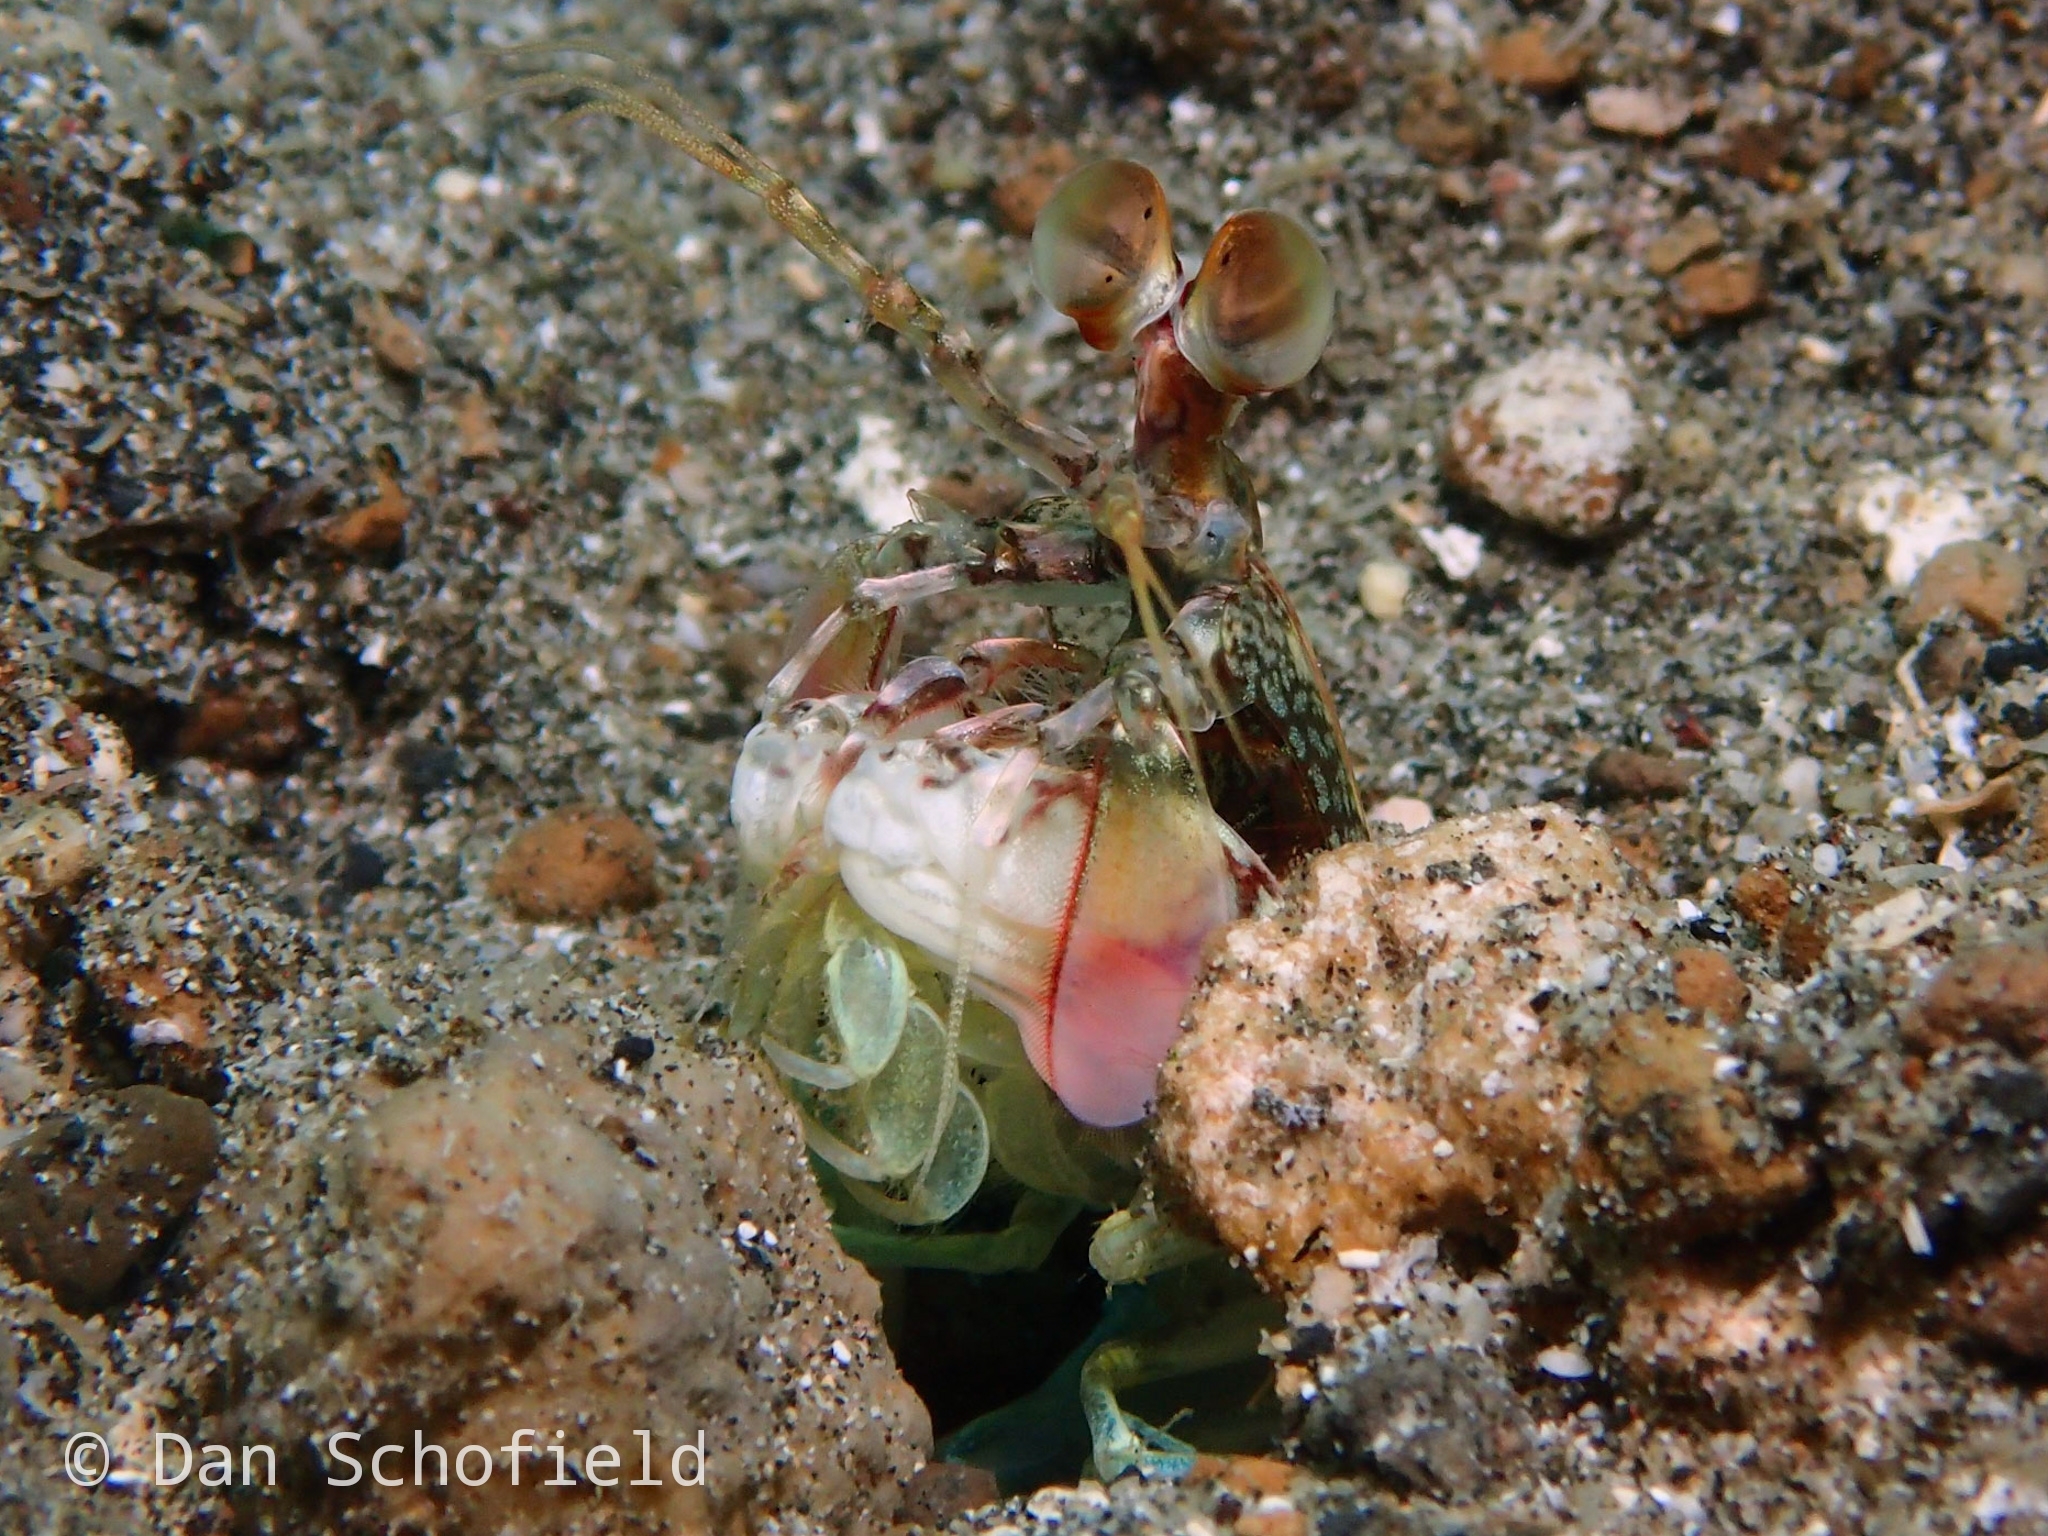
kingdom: Animalia
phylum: Arthropoda
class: Malacostraca
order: Stomatopoda
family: Odontodactylidae
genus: Odontodactylus
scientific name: Odontodactylus latirostris
